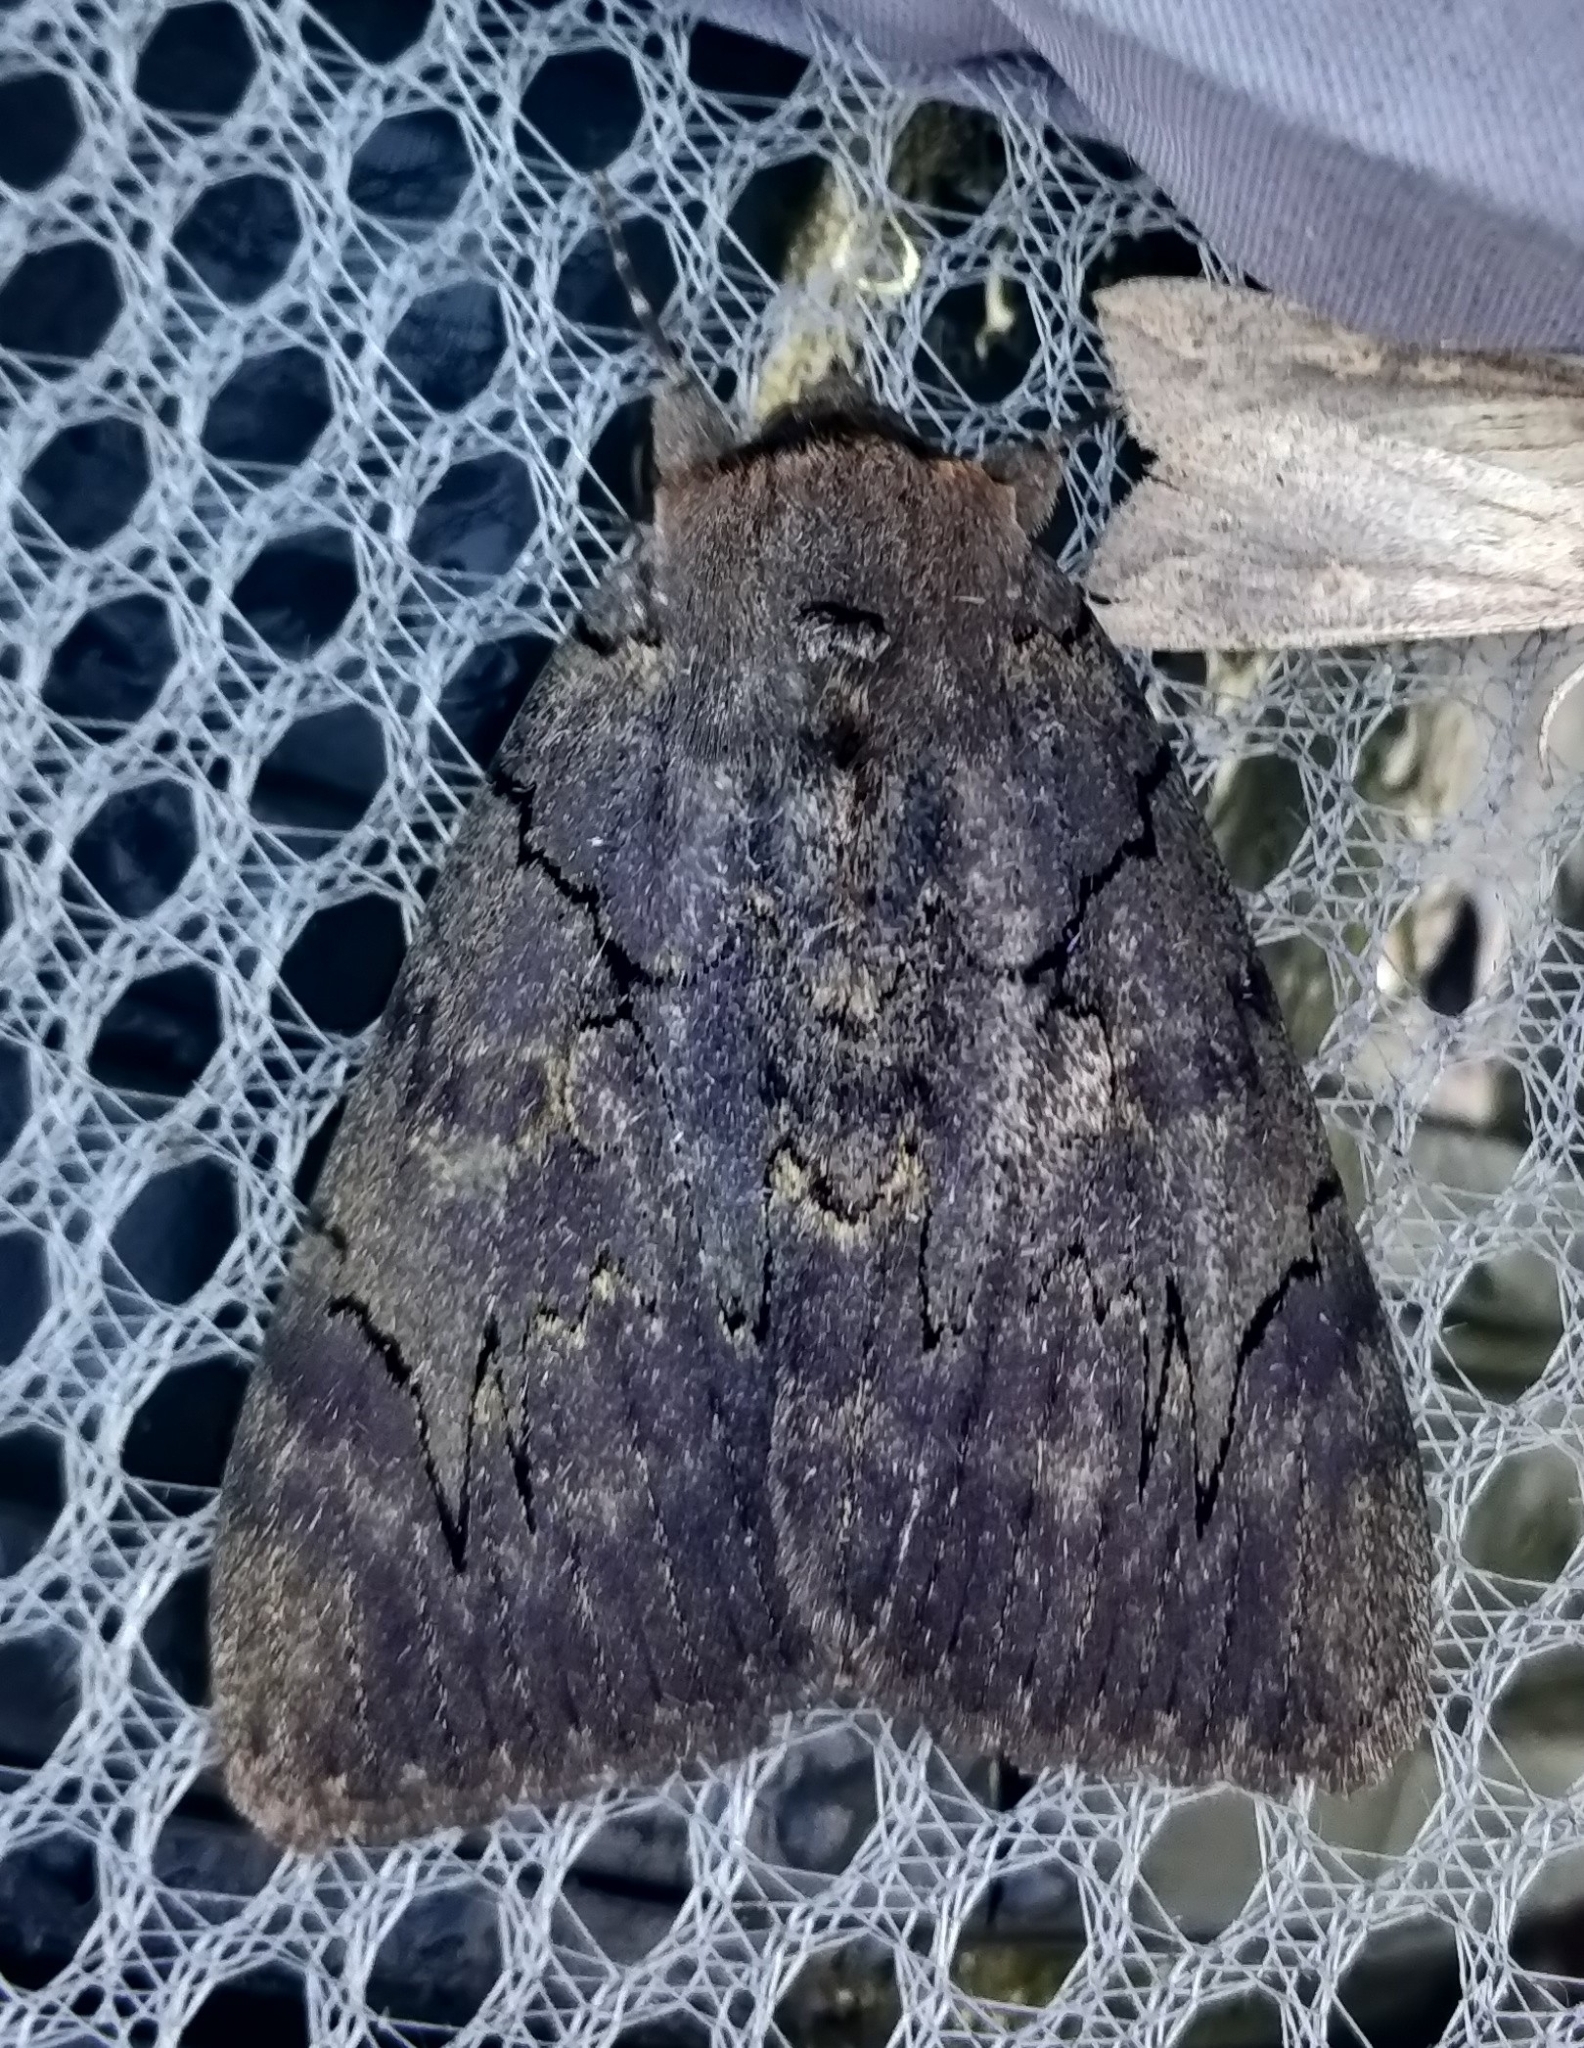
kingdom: Animalia
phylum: Arthropoda
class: Insecta
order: Lepidoptera
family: Erebidae
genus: Catocala
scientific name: Catocala cara
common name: Darling underwing
